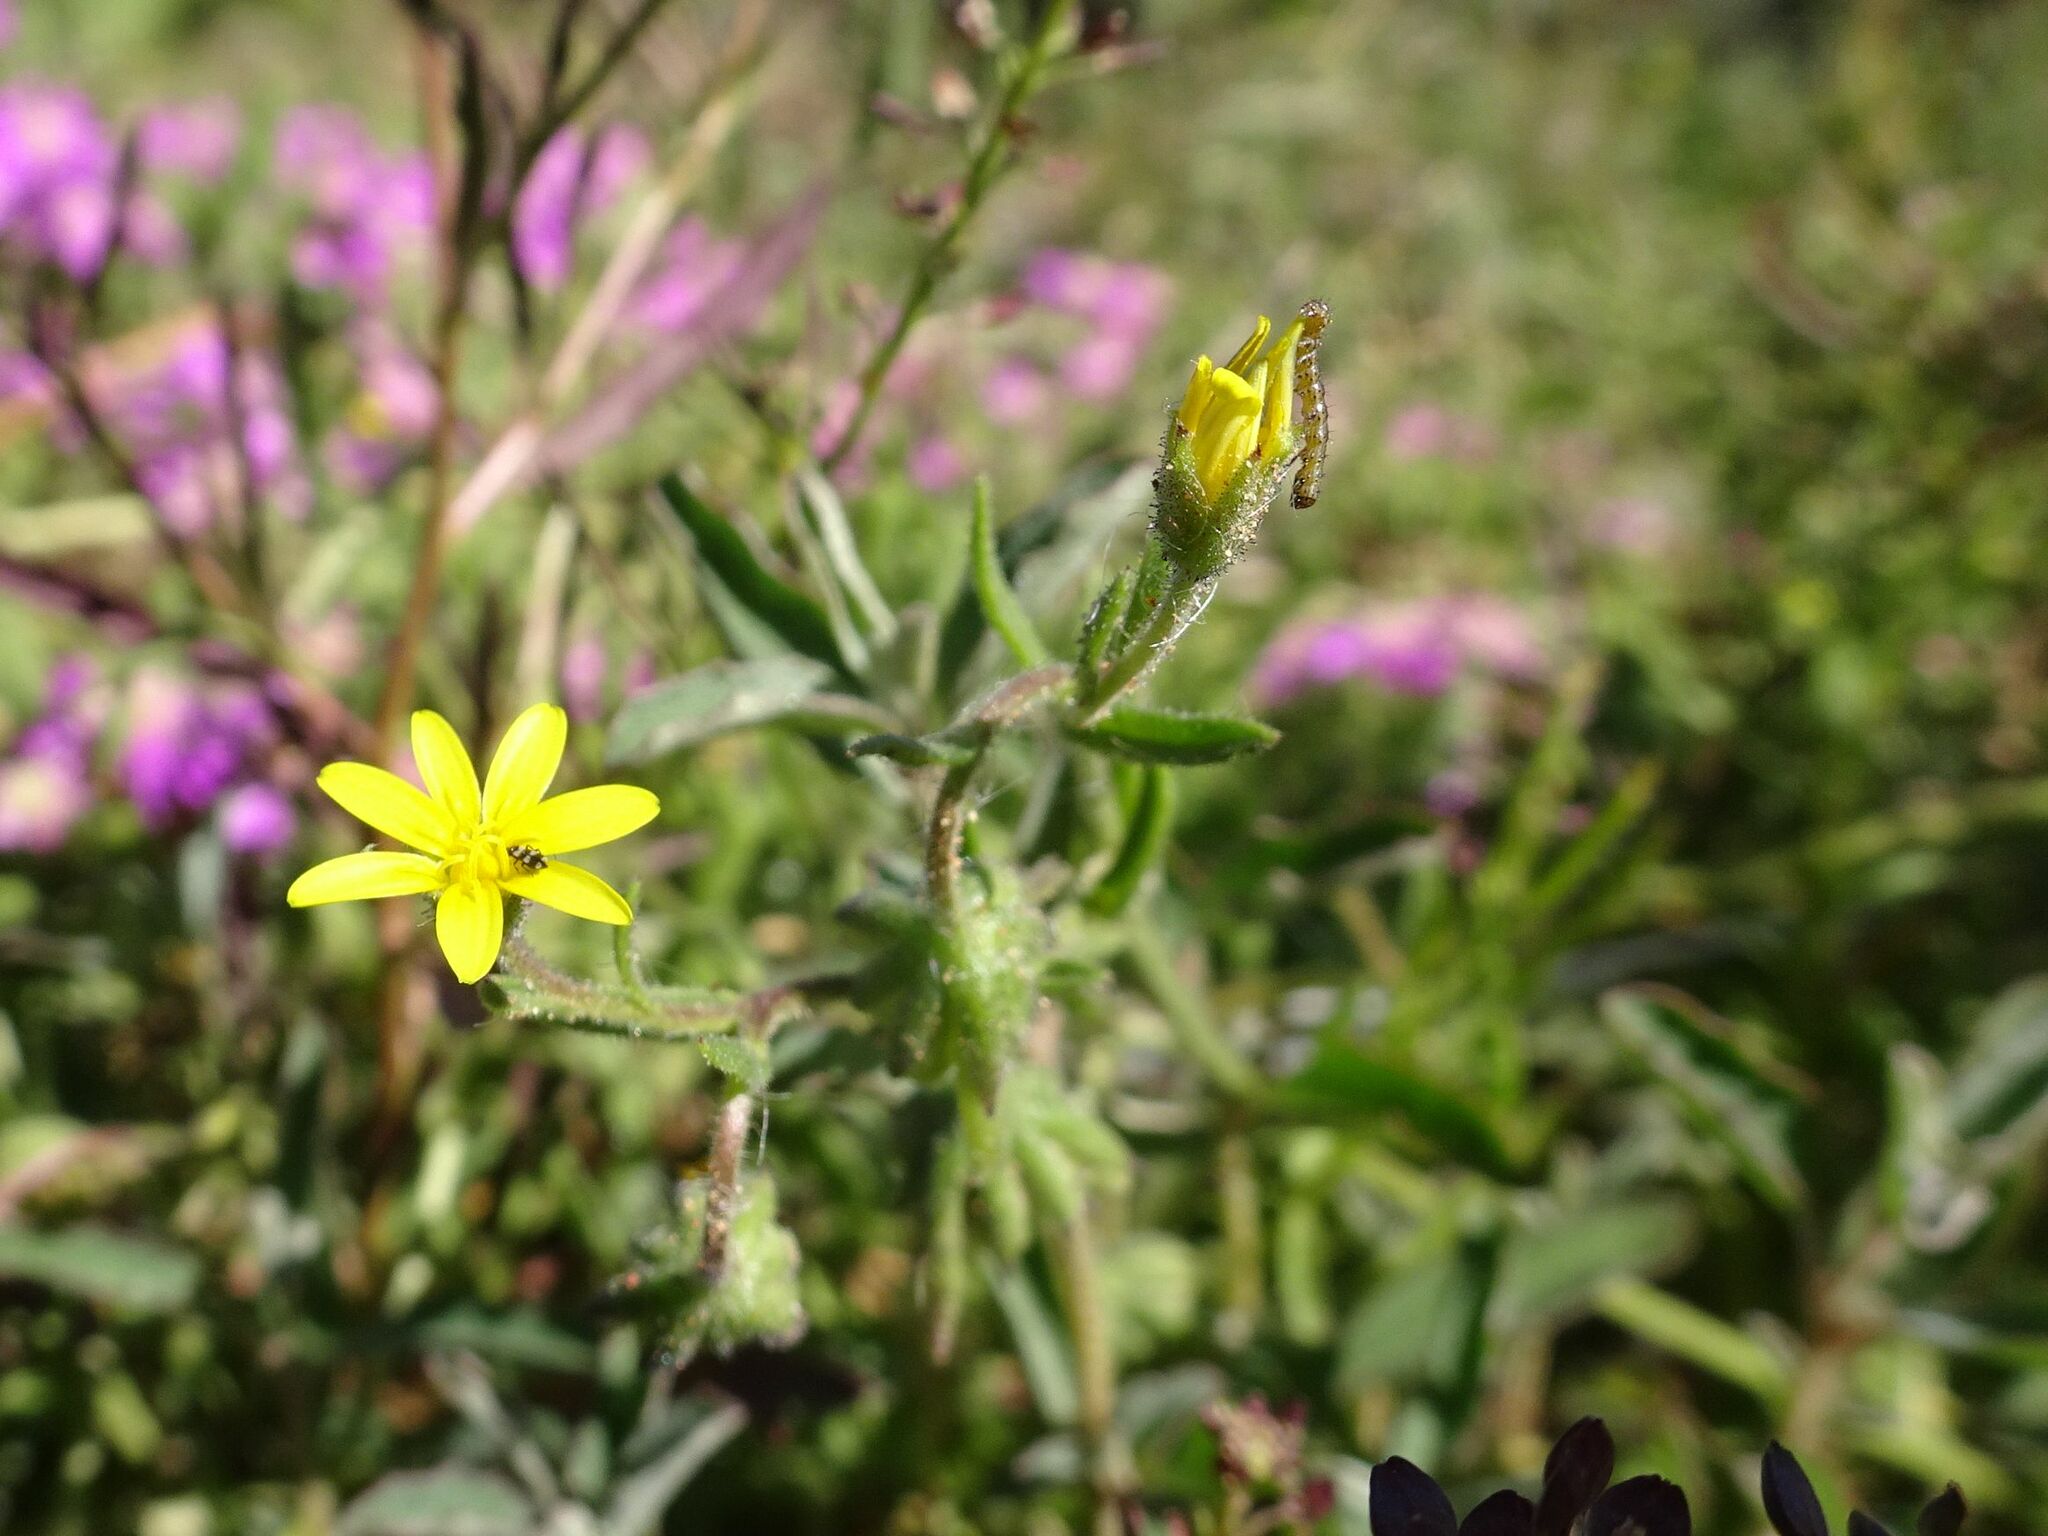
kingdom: Plantae
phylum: Tracheophyta
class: Magnoliopsida
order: Asterales
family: Asteraceae
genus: Osteospermum
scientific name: Osteospermum calendulaceum
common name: Stinking roger
